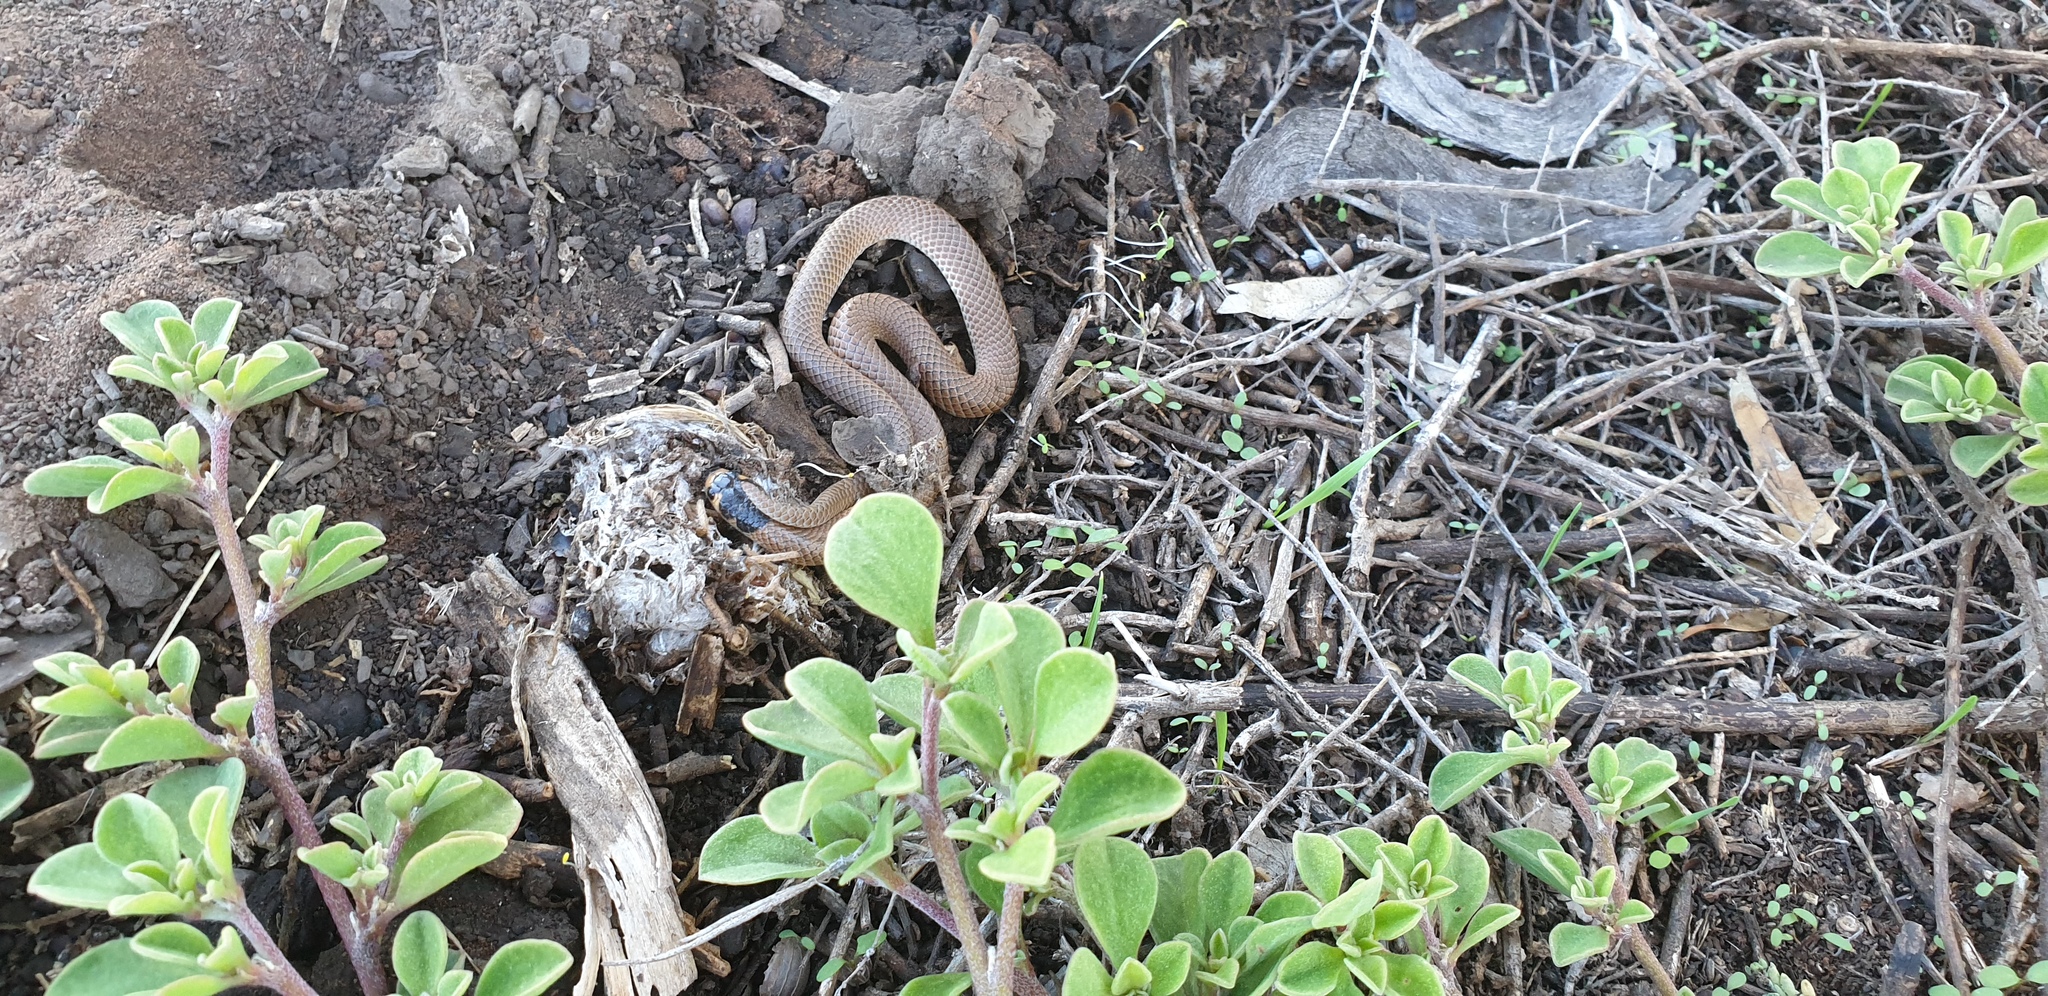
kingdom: Animalia
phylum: Chordata
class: Squamata
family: Elapidae
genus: Suta
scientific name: Suta spectabilis
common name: Bush’s hooded snake
